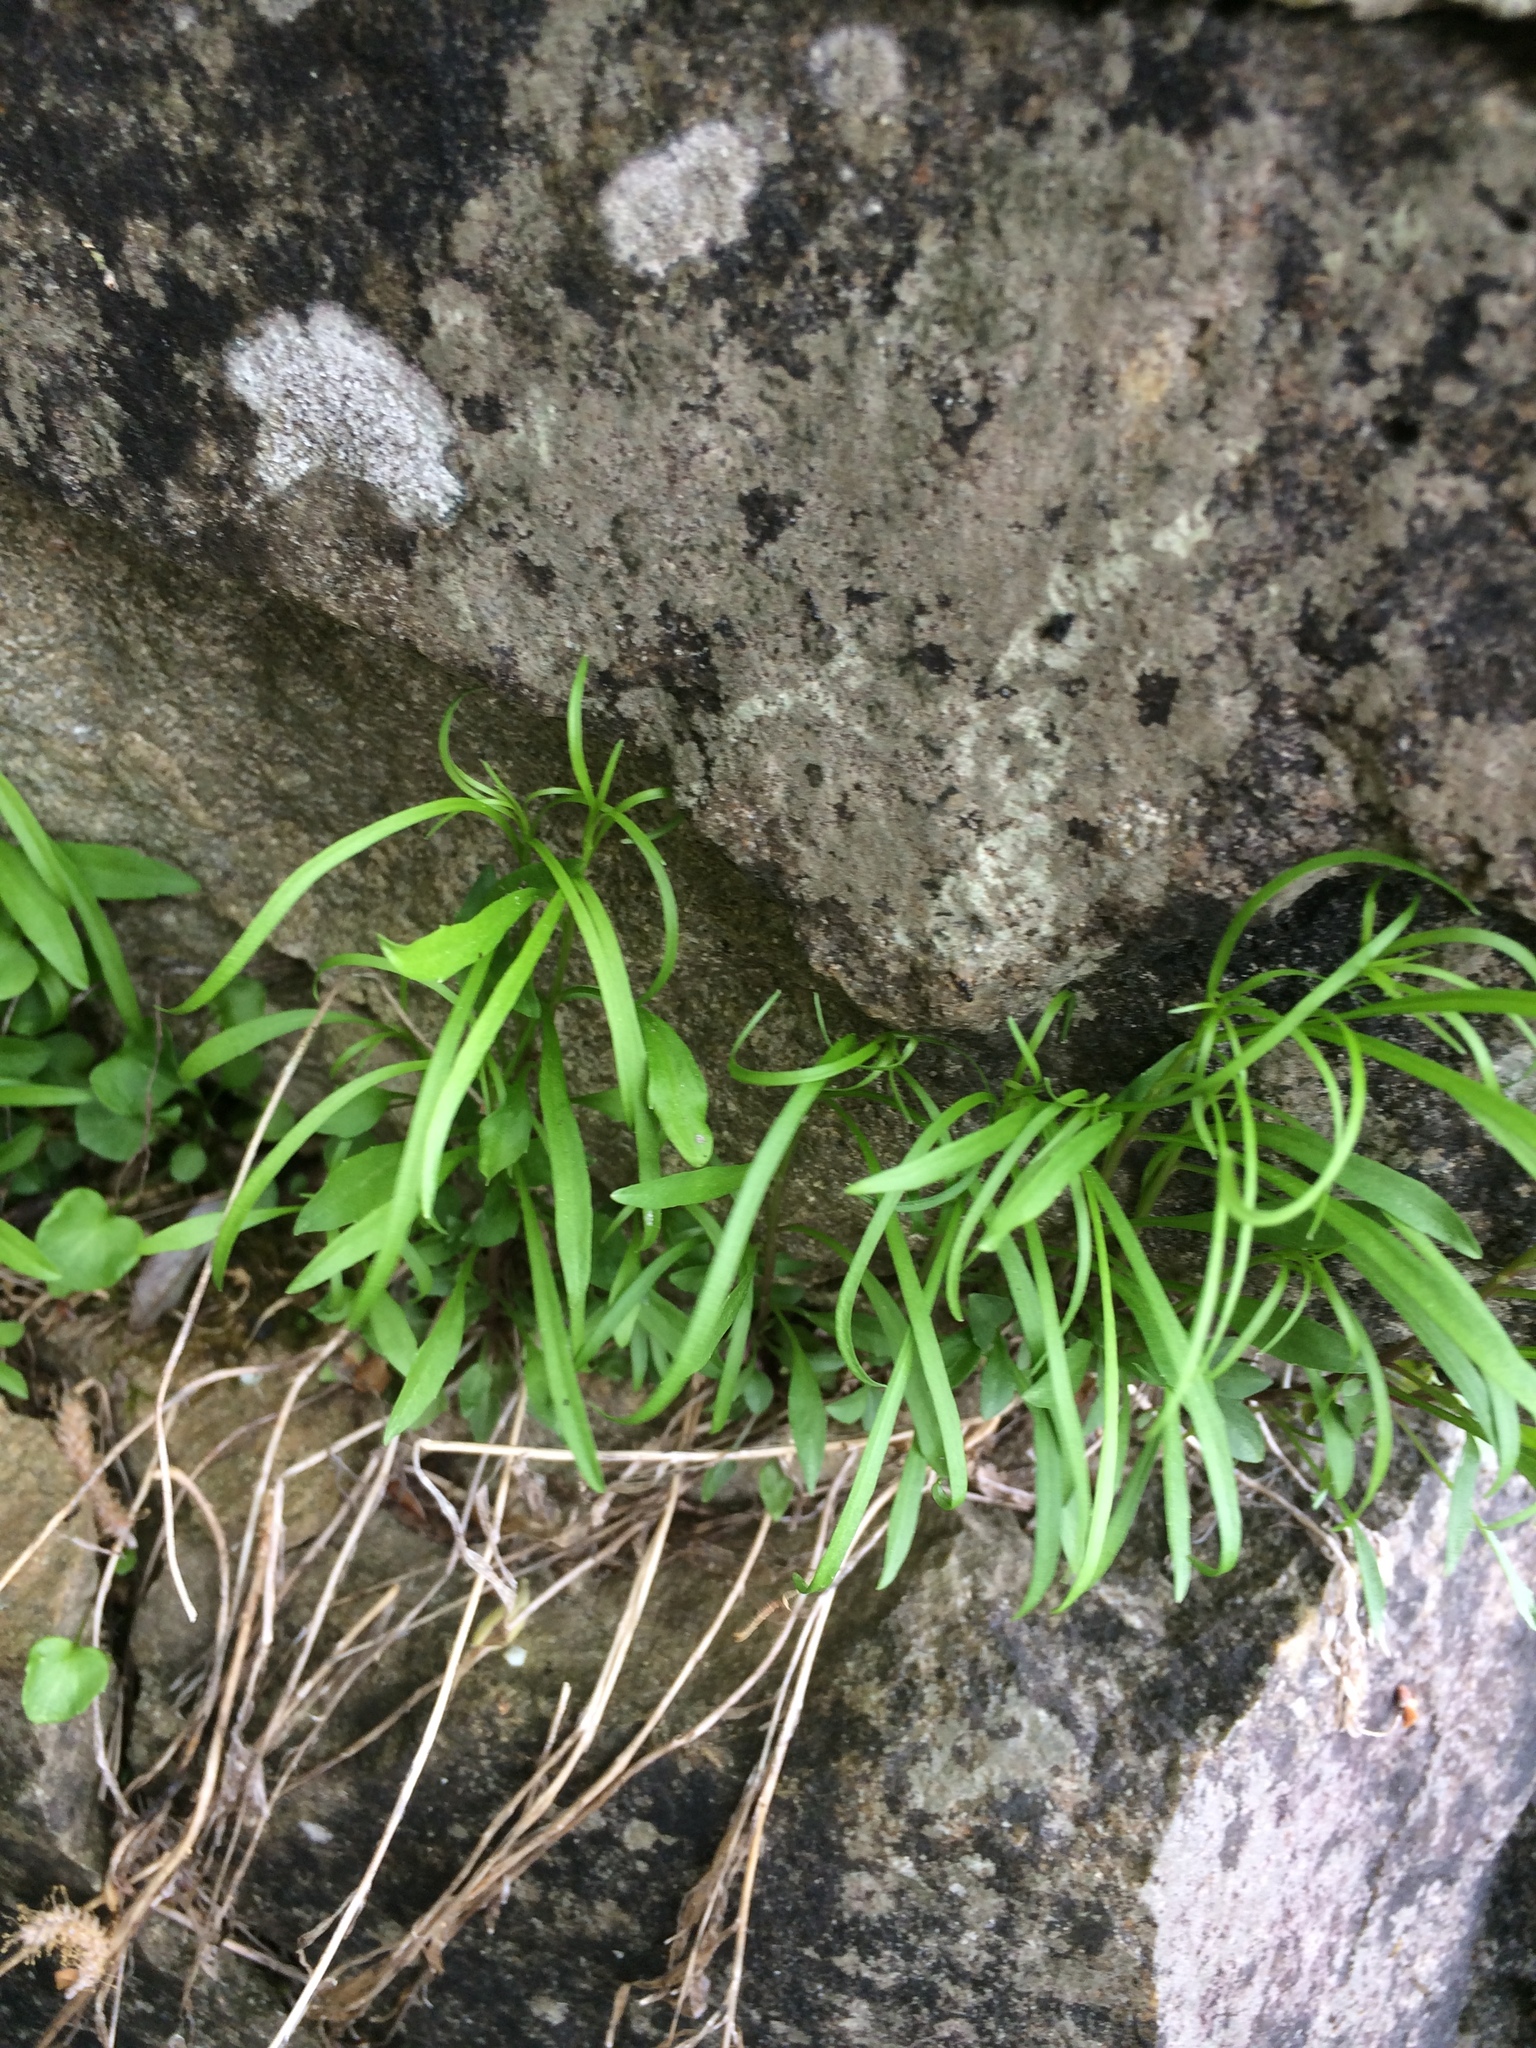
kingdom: Plantae
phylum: Tracheophyta
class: Magnoliopsida
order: Asterales
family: Campanulaceae
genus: Campanula
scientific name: Campanula
